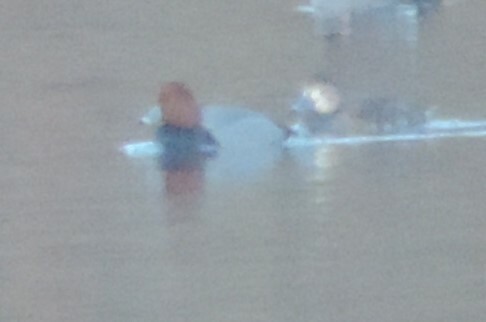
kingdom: Animalia
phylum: Chordata
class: Aves
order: Anseriformes
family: Anatidae
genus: Aythya
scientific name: Aythya americana
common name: Redhead
